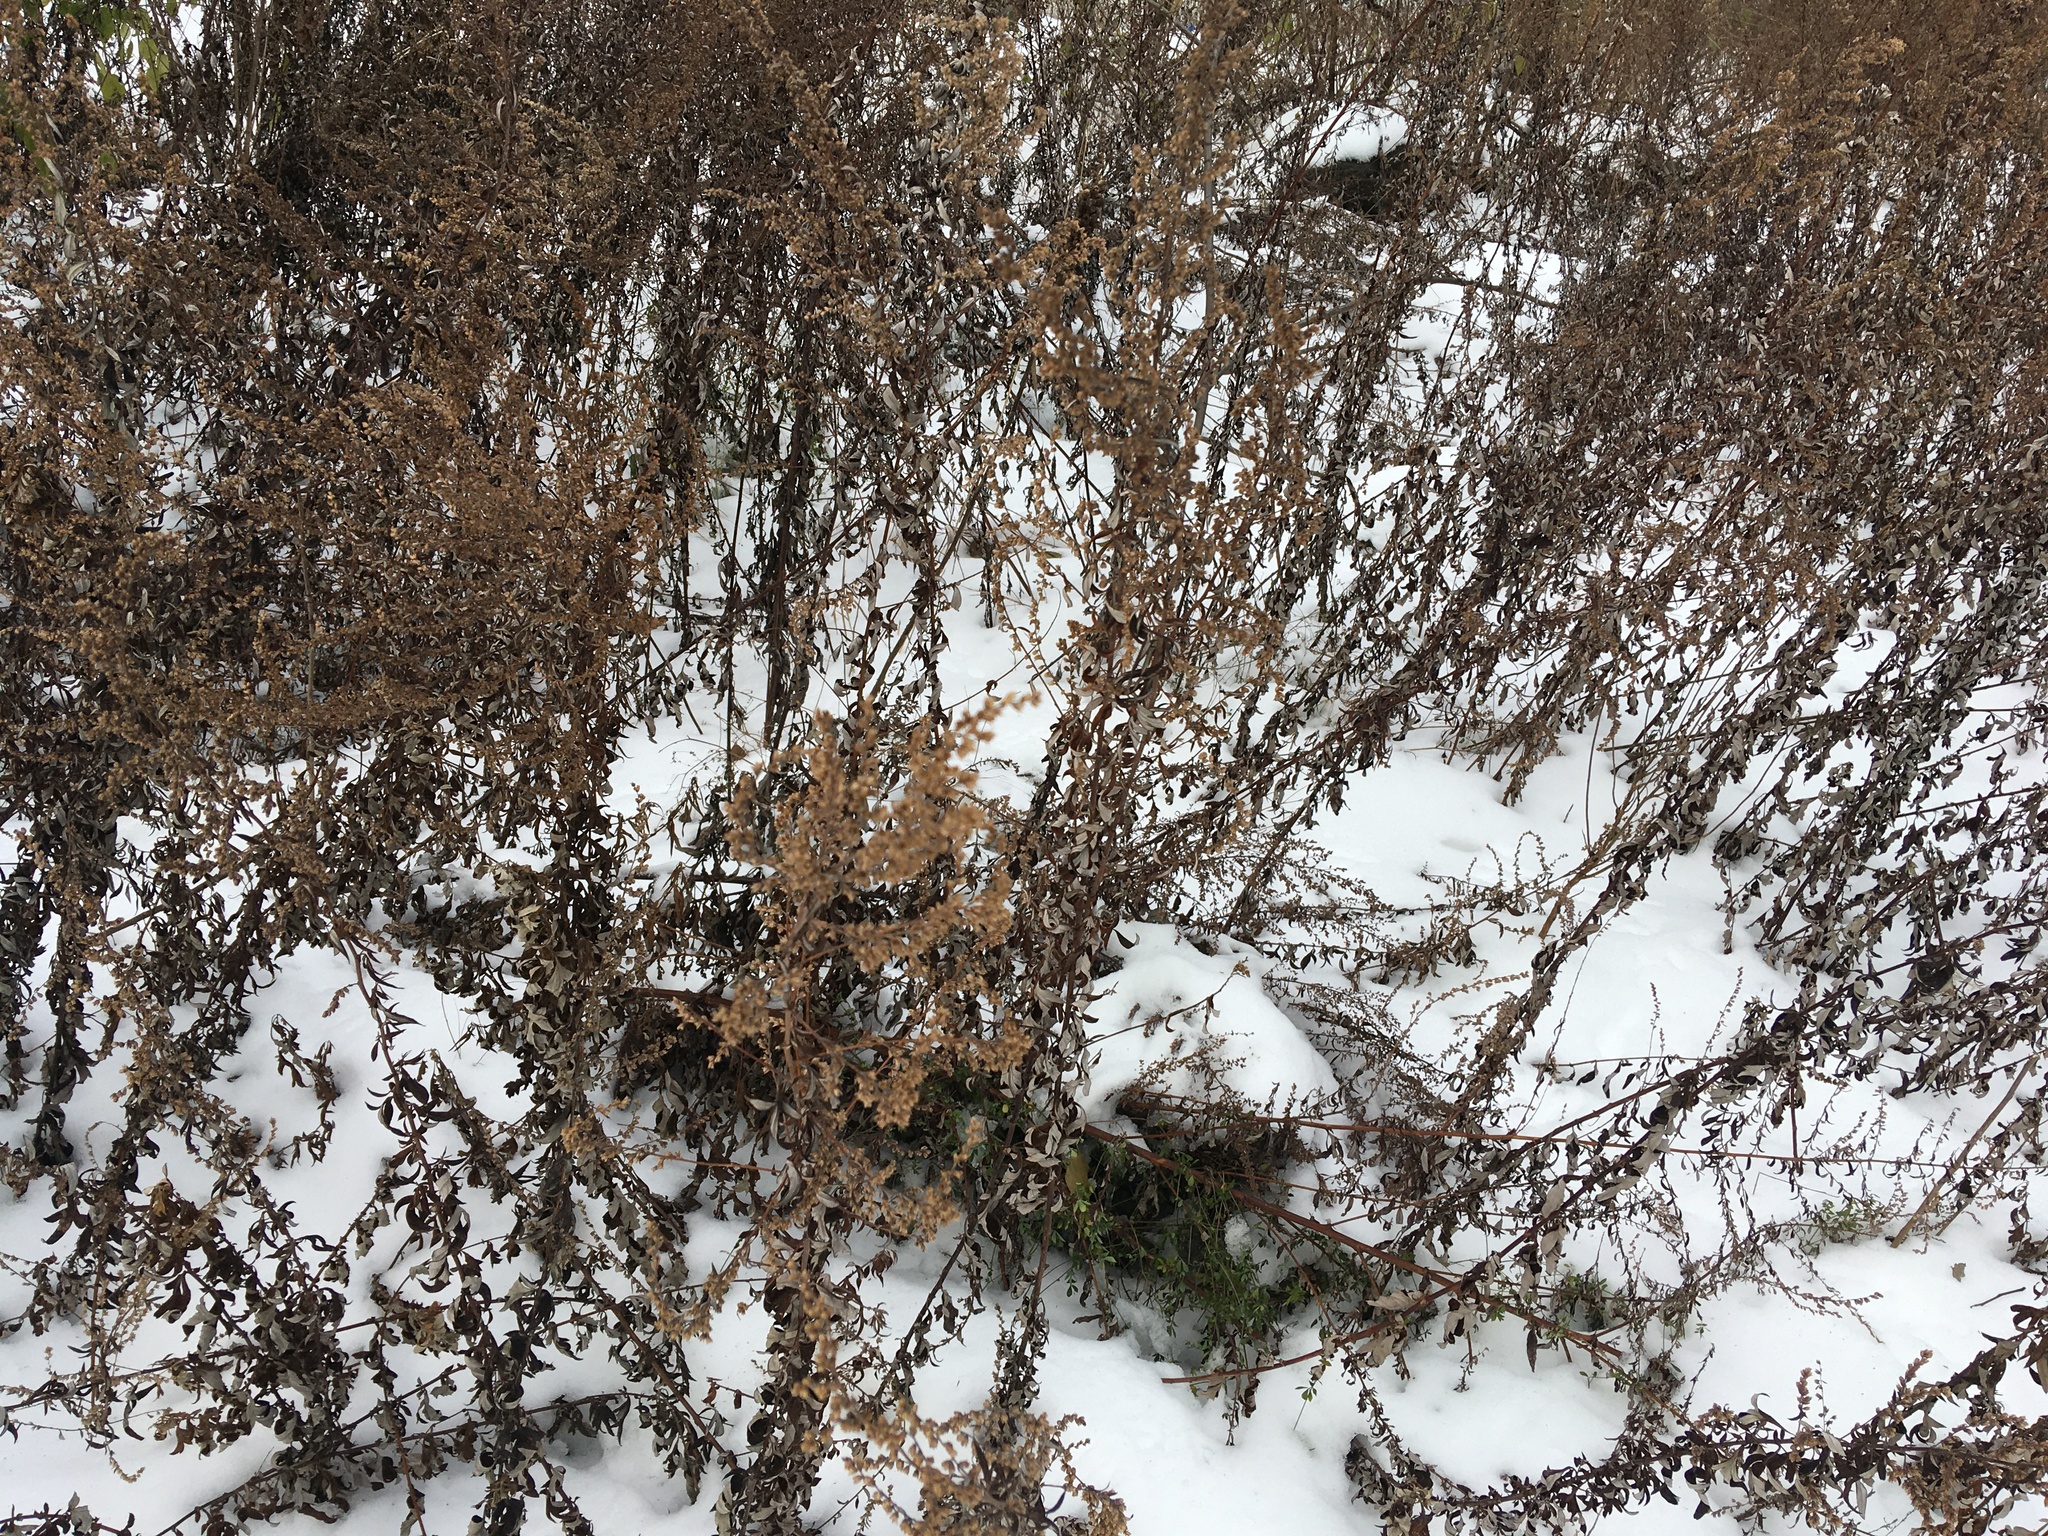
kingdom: Plantae
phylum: Tracheophyta
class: Magnoliopsida
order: Asterales
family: Asteraceae
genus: Artemisia
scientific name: Artemisia vulgaris
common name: Mugwort
